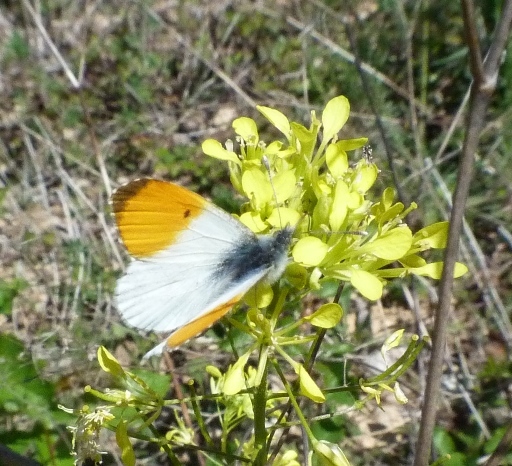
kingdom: Animalia
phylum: Arthropoda
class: Insecta
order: Lepidoptera
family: Pieridae
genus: Anthocharis
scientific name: Anthocharis cardamines
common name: Orange-tip
